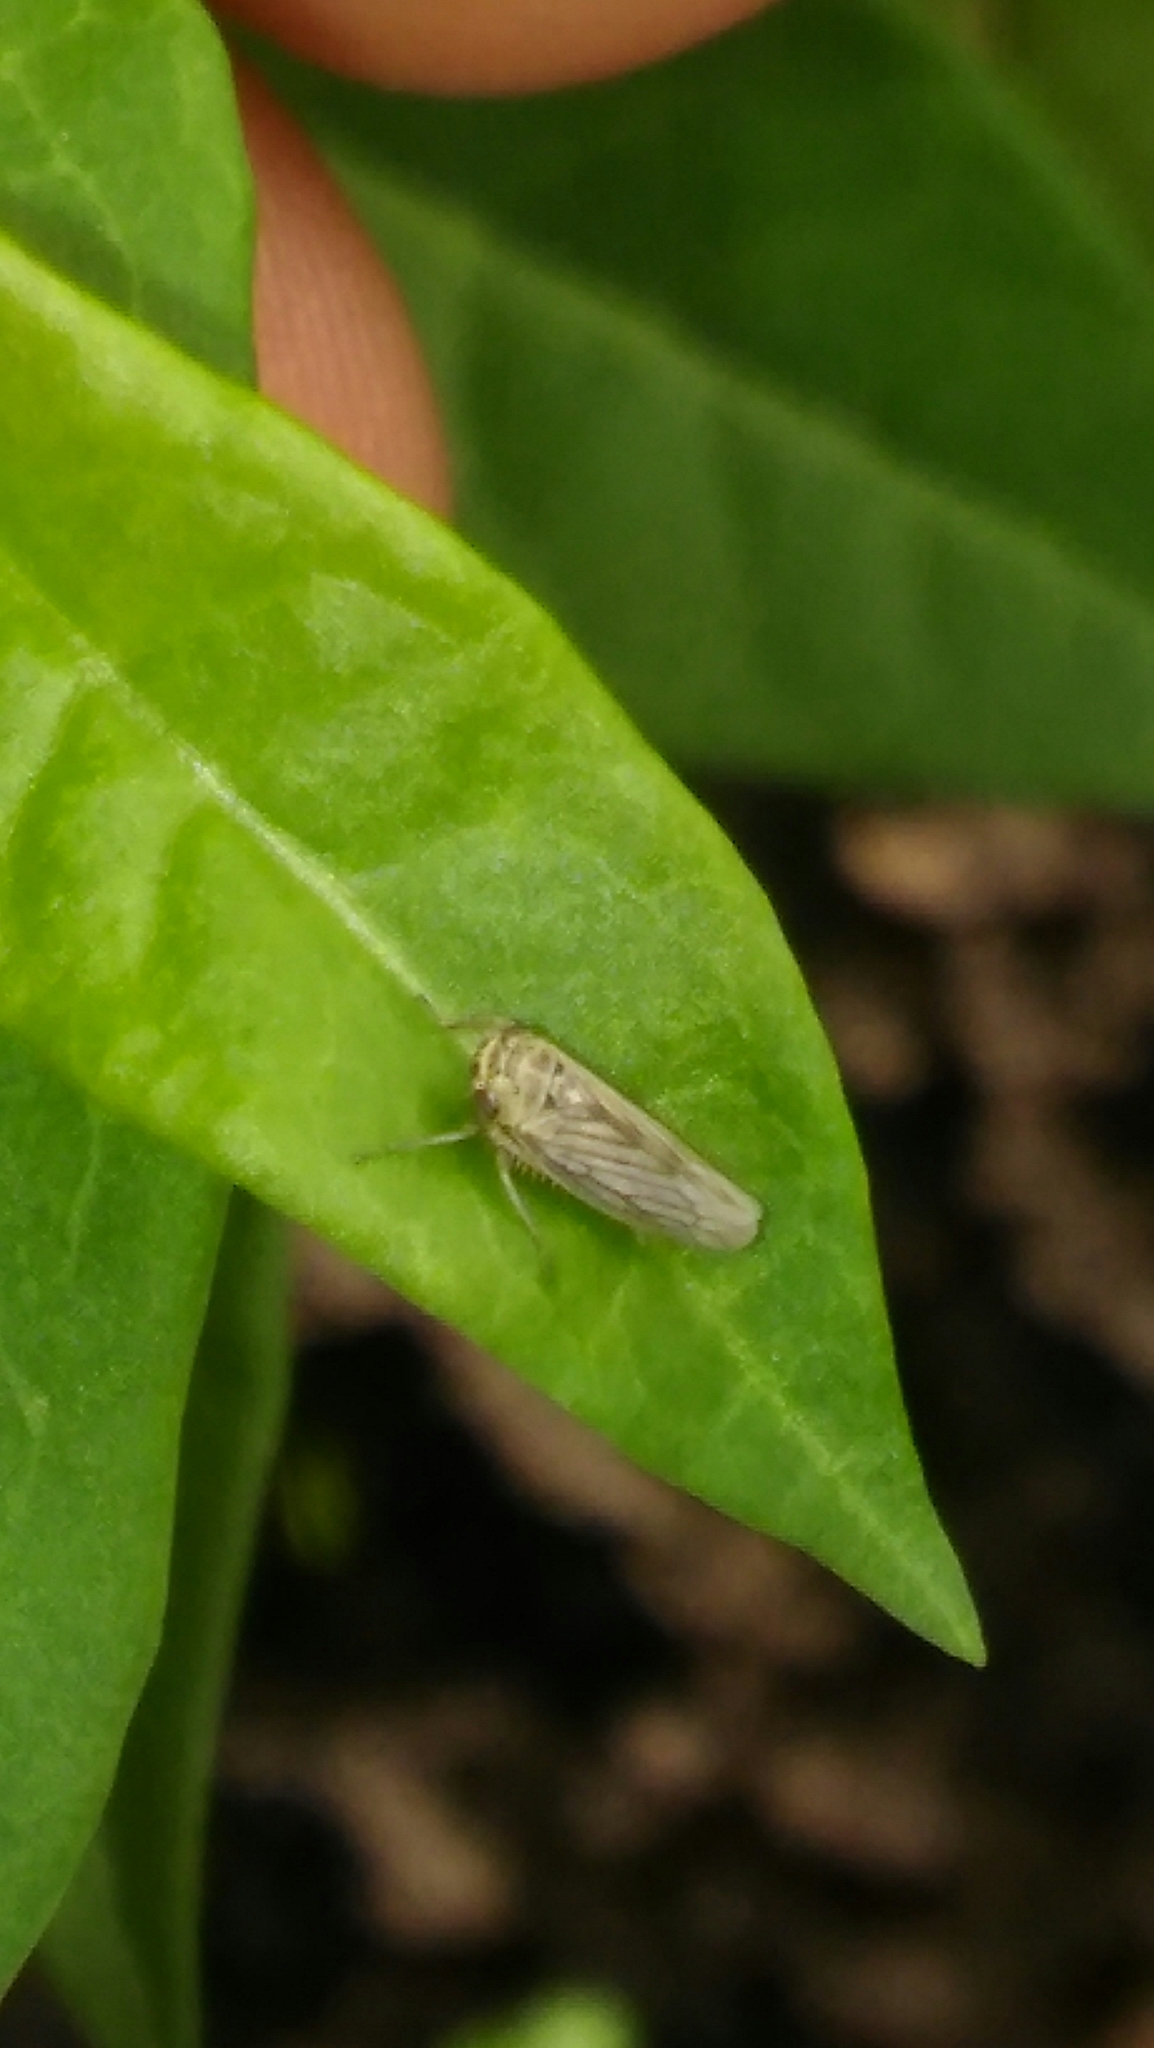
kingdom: Animalia
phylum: Arthropoda
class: Insecta
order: Hemiptera
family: Cicadellidae
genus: Exitianus
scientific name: Exitianus obscurinervis
